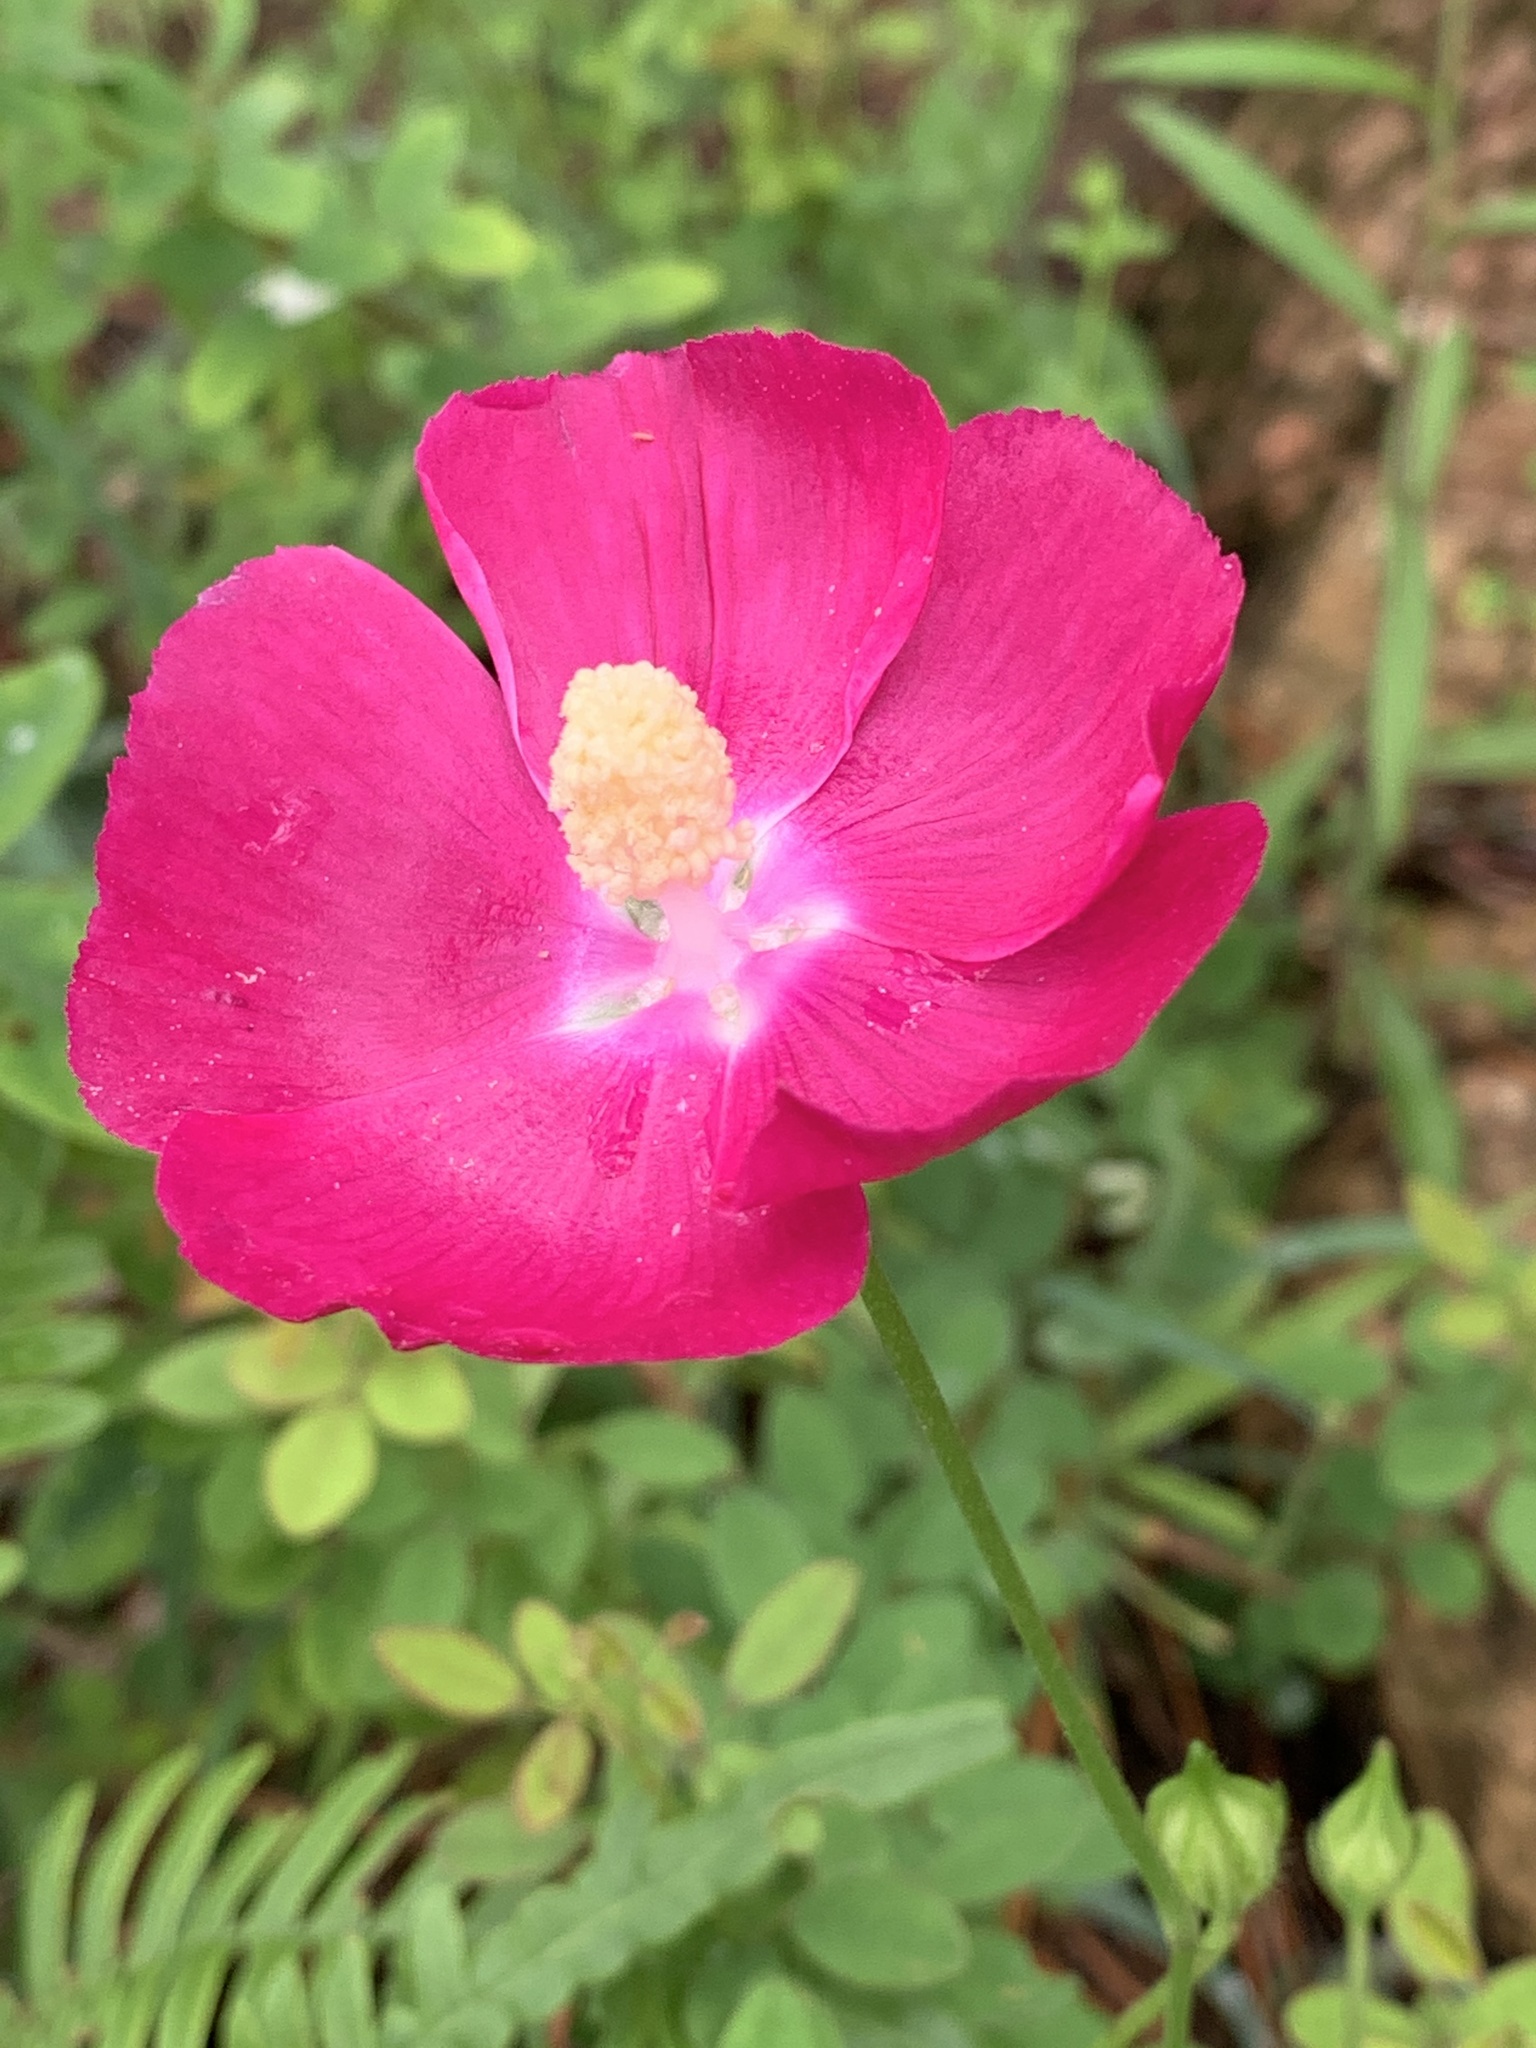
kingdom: Plantae
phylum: Tracheophyta
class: Magnoliopsida
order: Malvales
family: Malvaceae
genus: Callirhoe
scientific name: Callirhoe papaver
